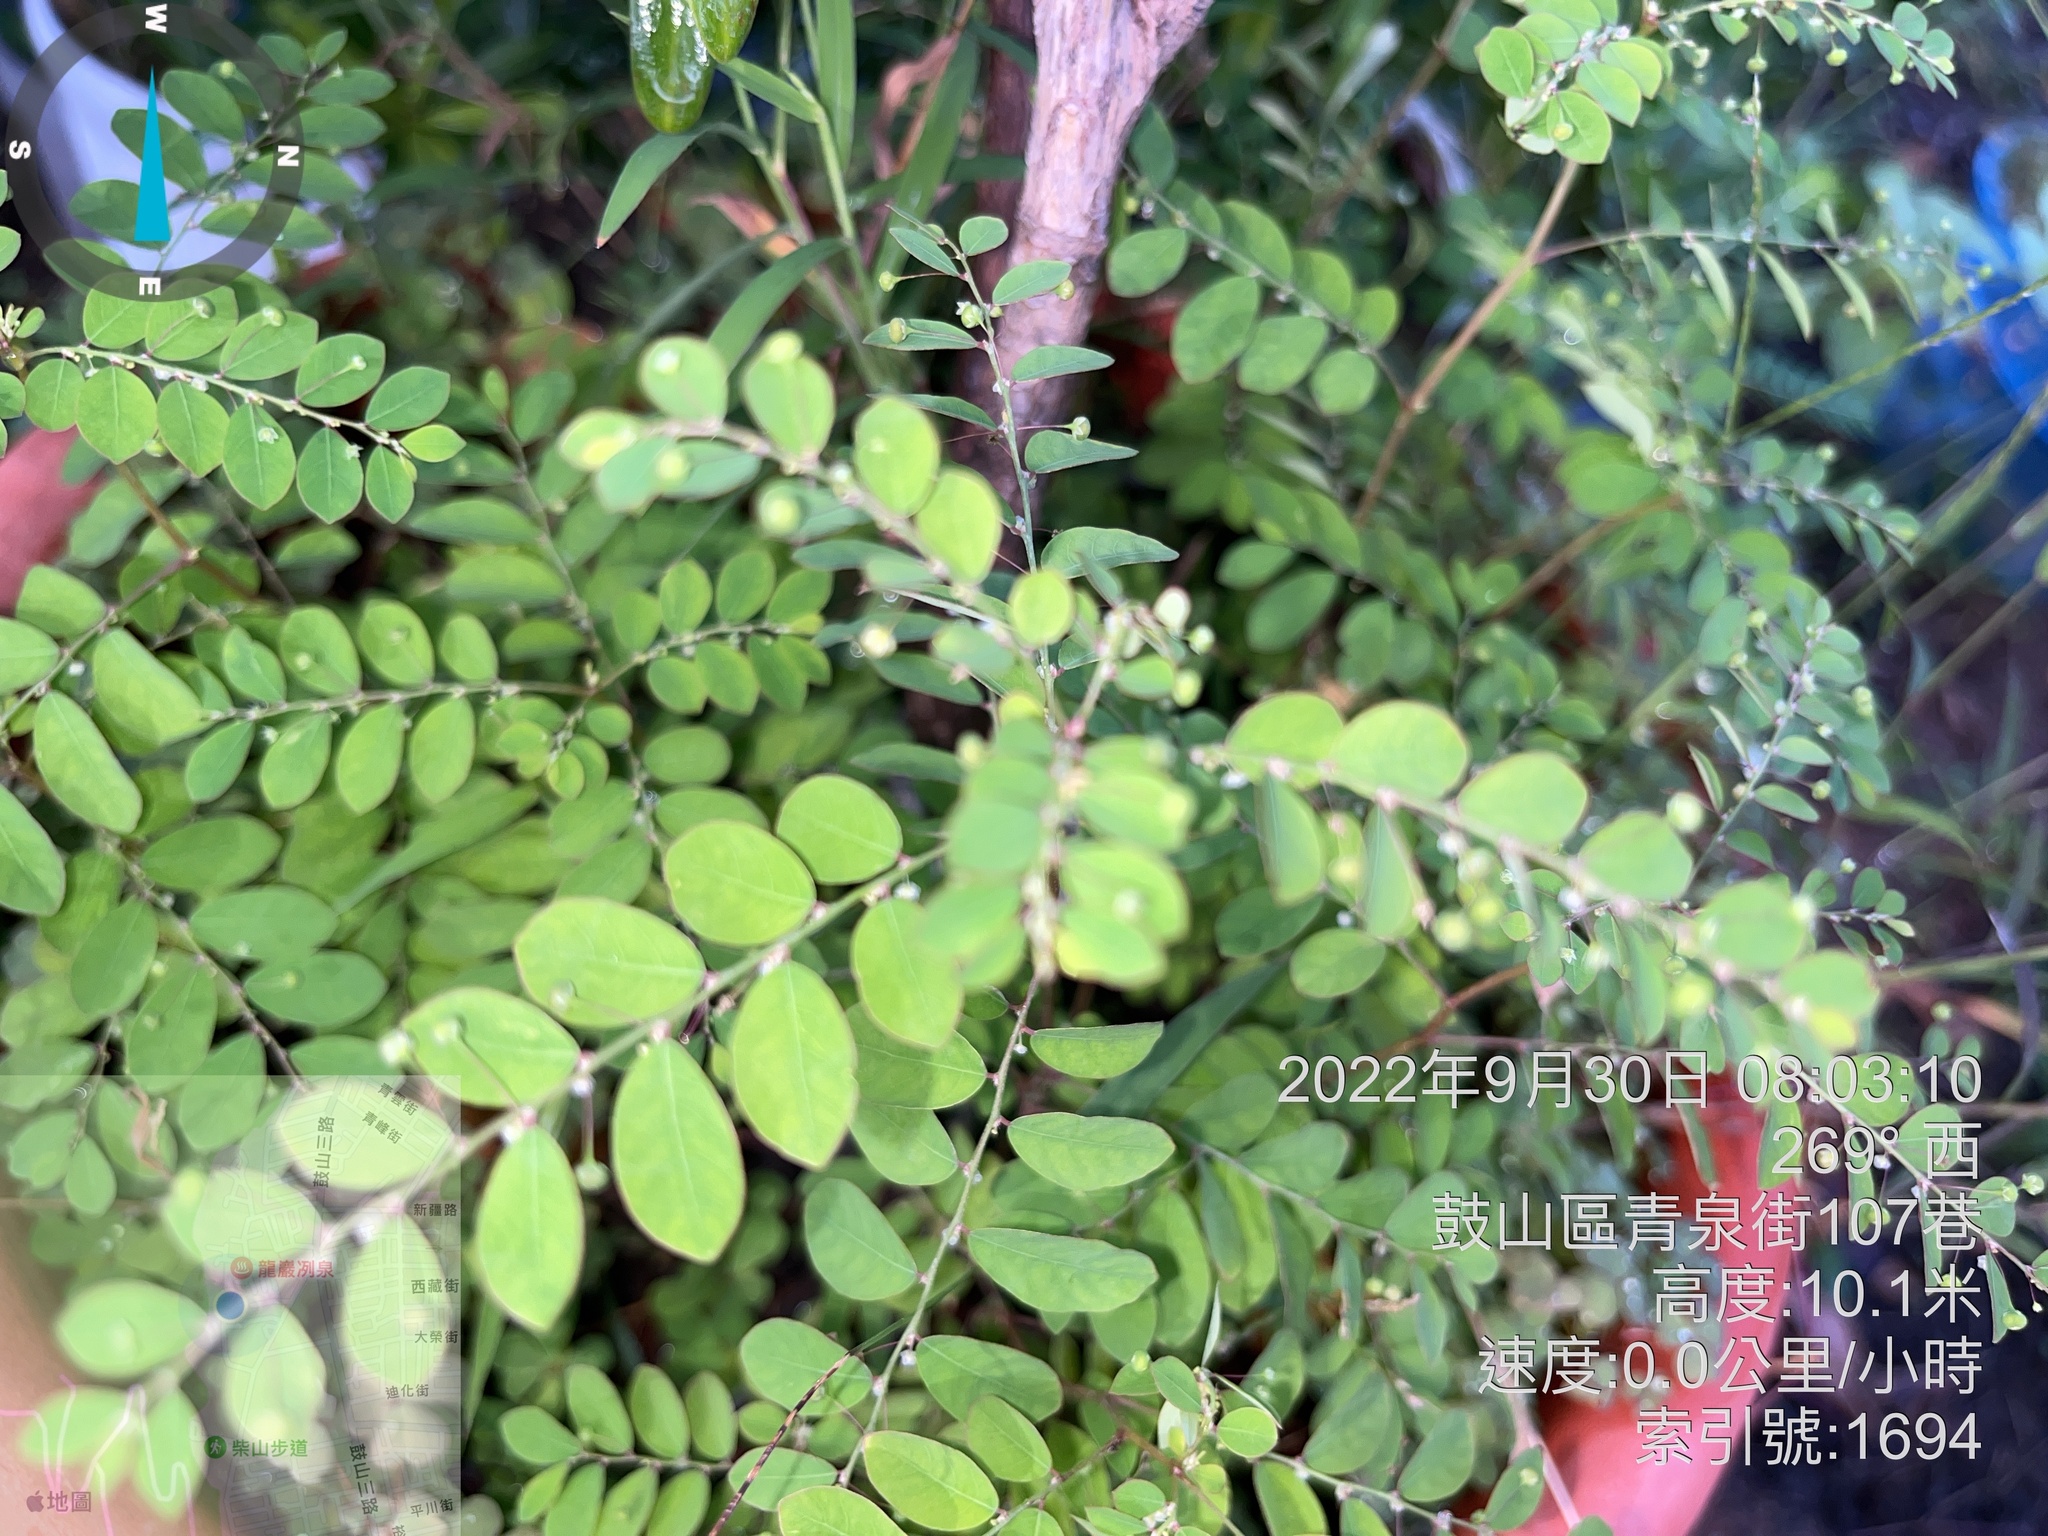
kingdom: Plantae
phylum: Tracheophyta
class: Magnoliopsida
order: Malpighiales
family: Phyllanthaceae
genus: Phyllanthus
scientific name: Phyllanthus tenellus
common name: Mascarene island leaf-flower
